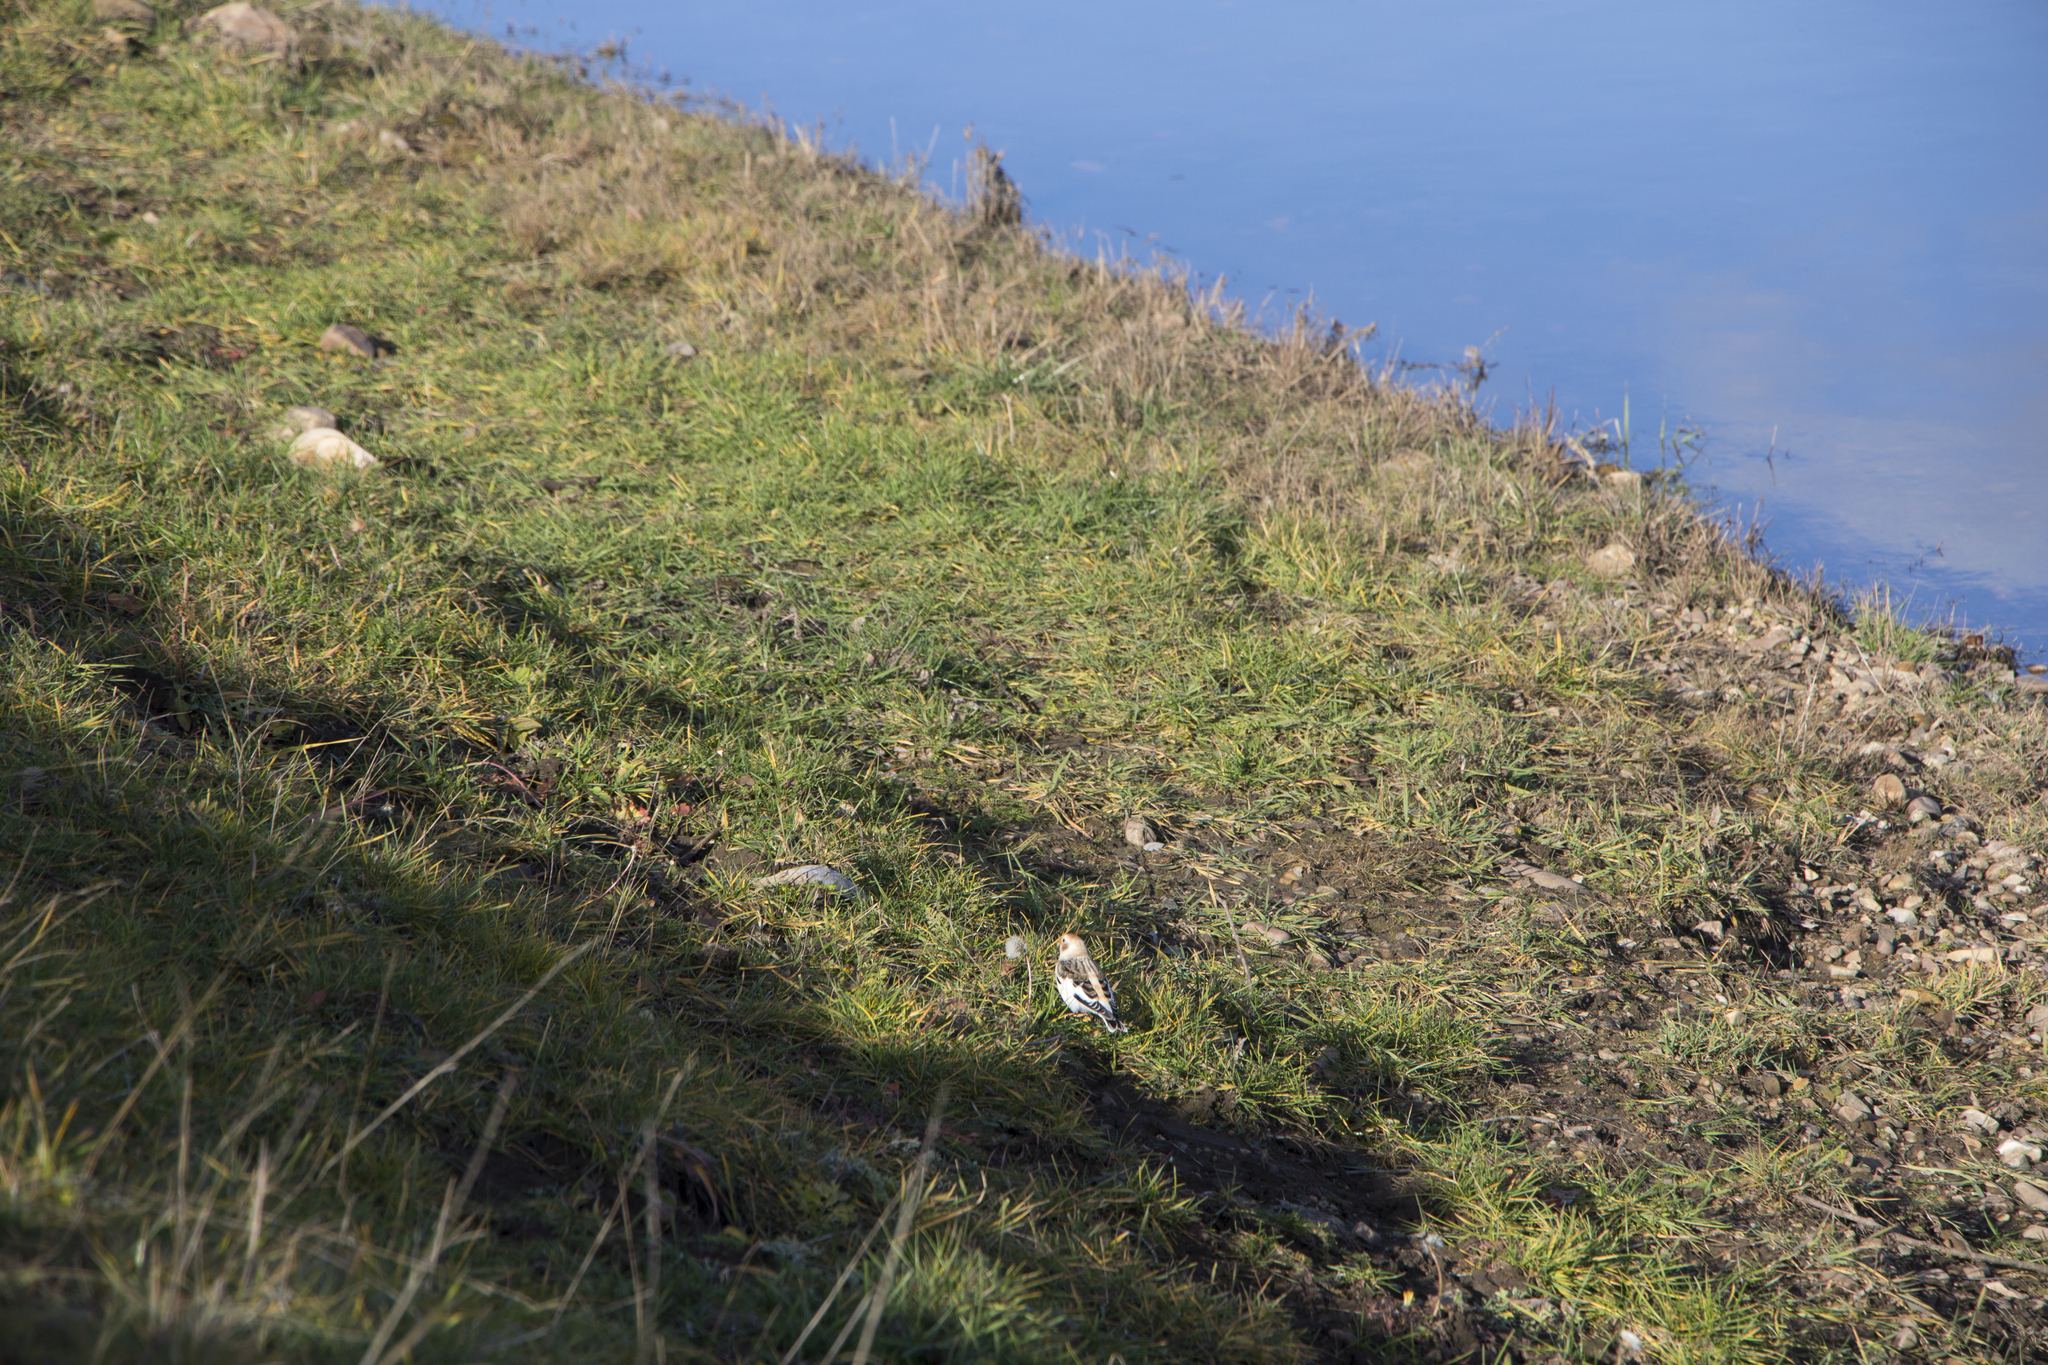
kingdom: Animalia
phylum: Chordata
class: Aves
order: Passeriformes
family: Calcariidae
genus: Plectrophenax
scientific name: Plectrophenax nivalis
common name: Snow bunting
